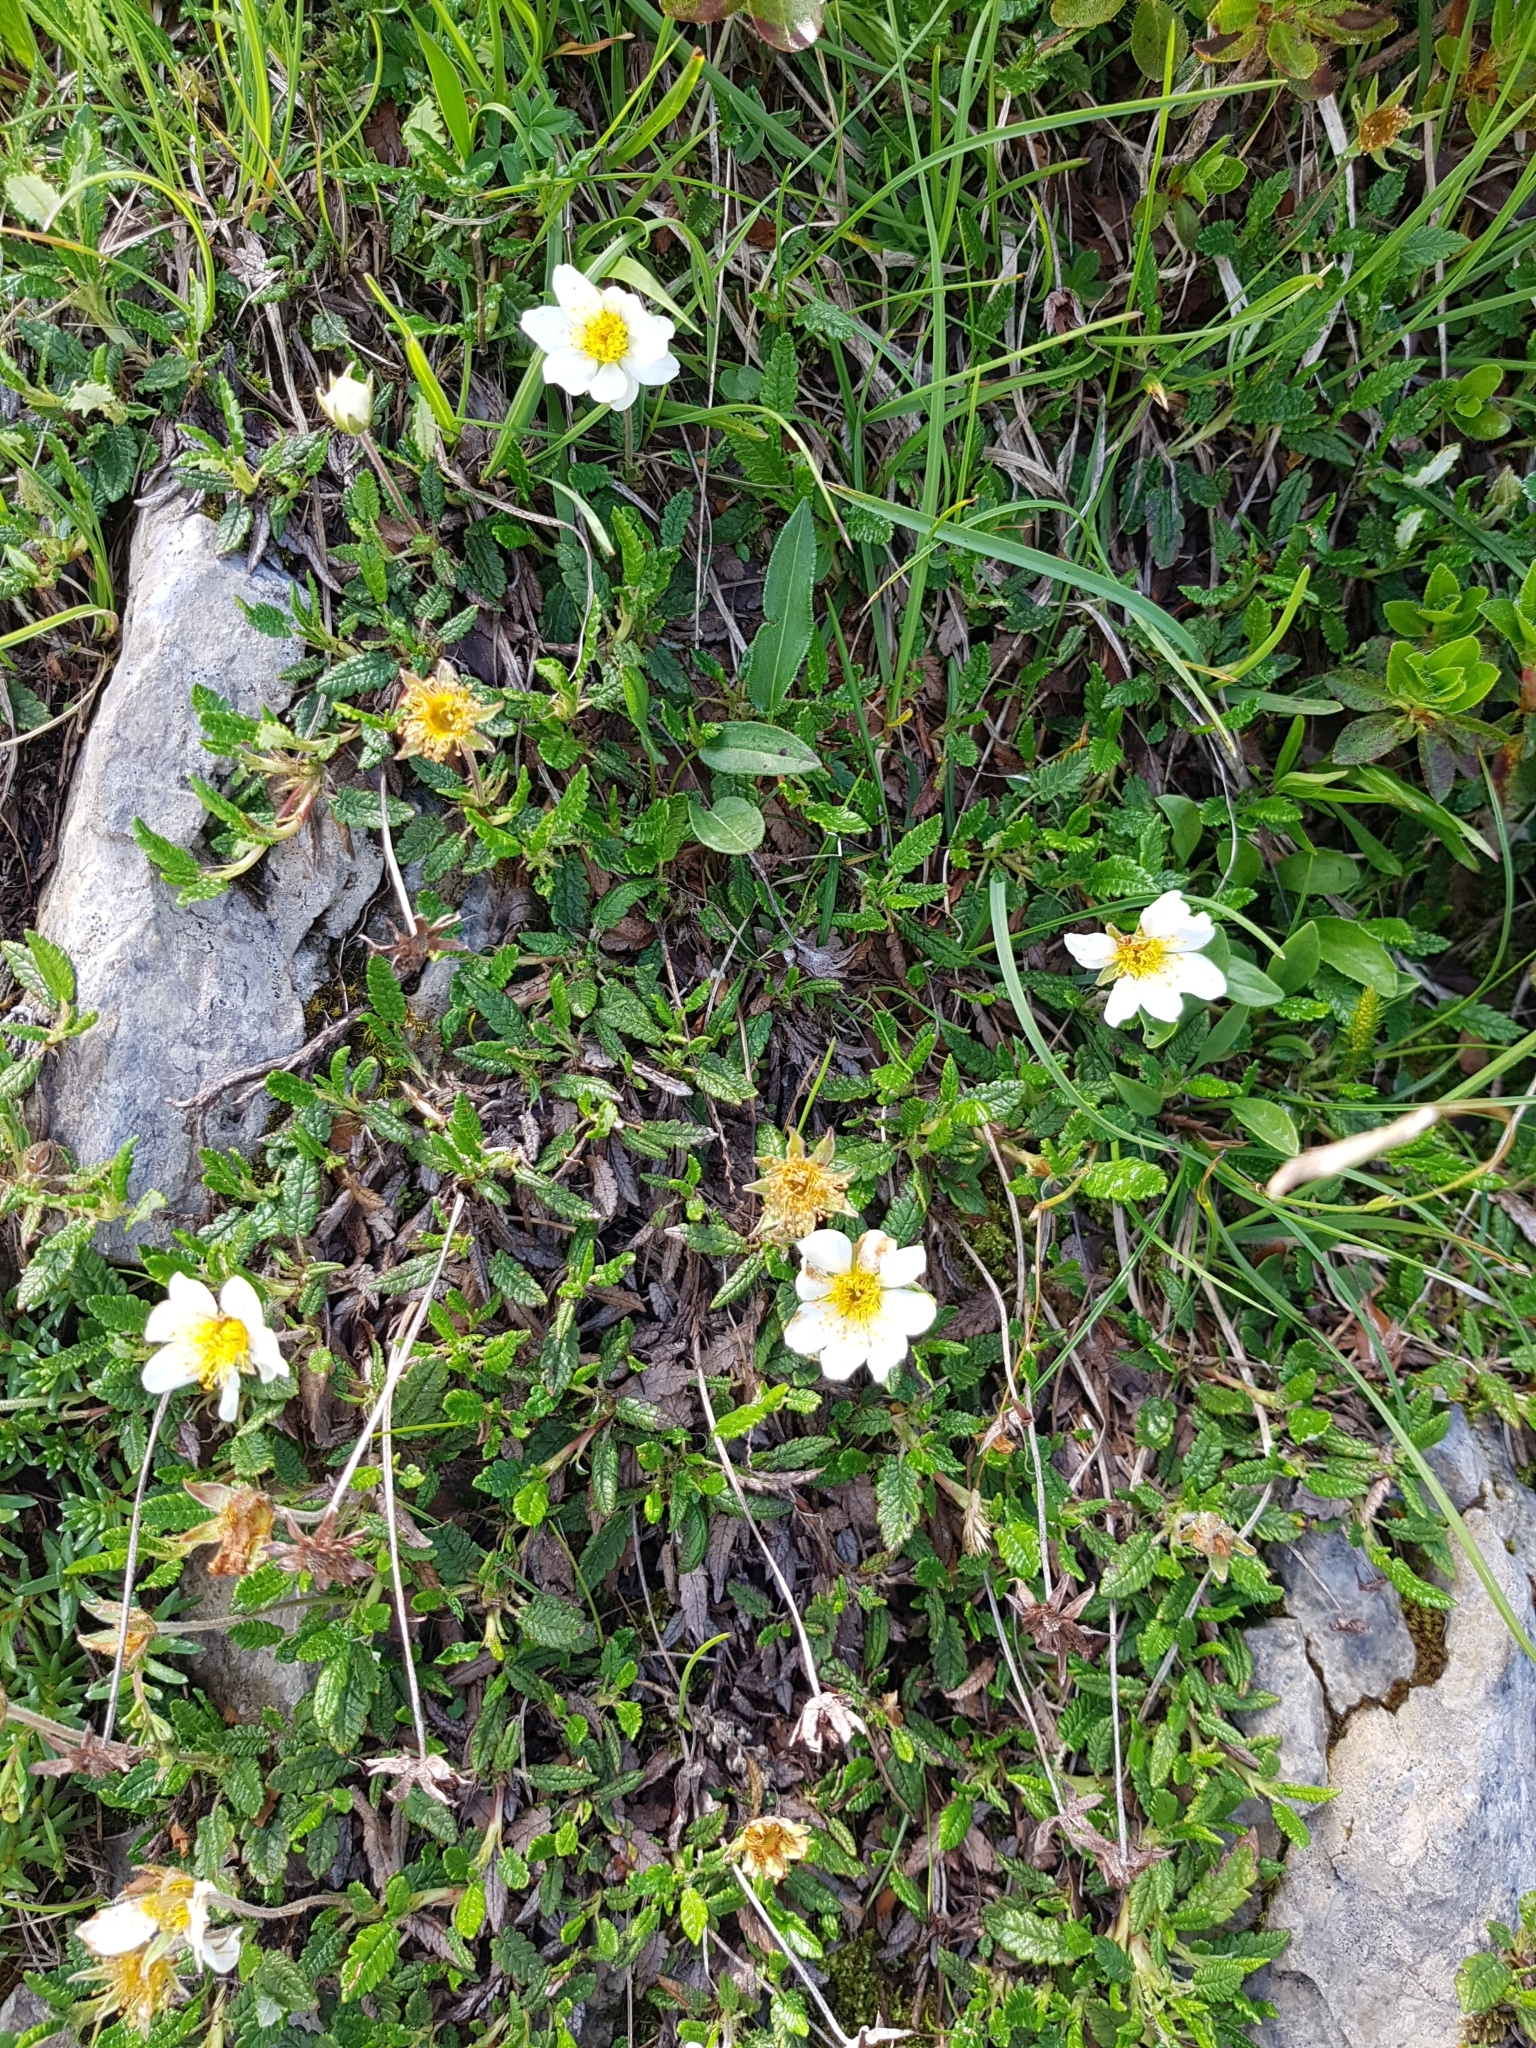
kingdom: Plantae
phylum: Tracheophyta
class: Magnoliopsida
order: Rosales
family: Rosaceae
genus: Dryas
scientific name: Dryas octopetala
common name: Eight-petal mountain-avens
